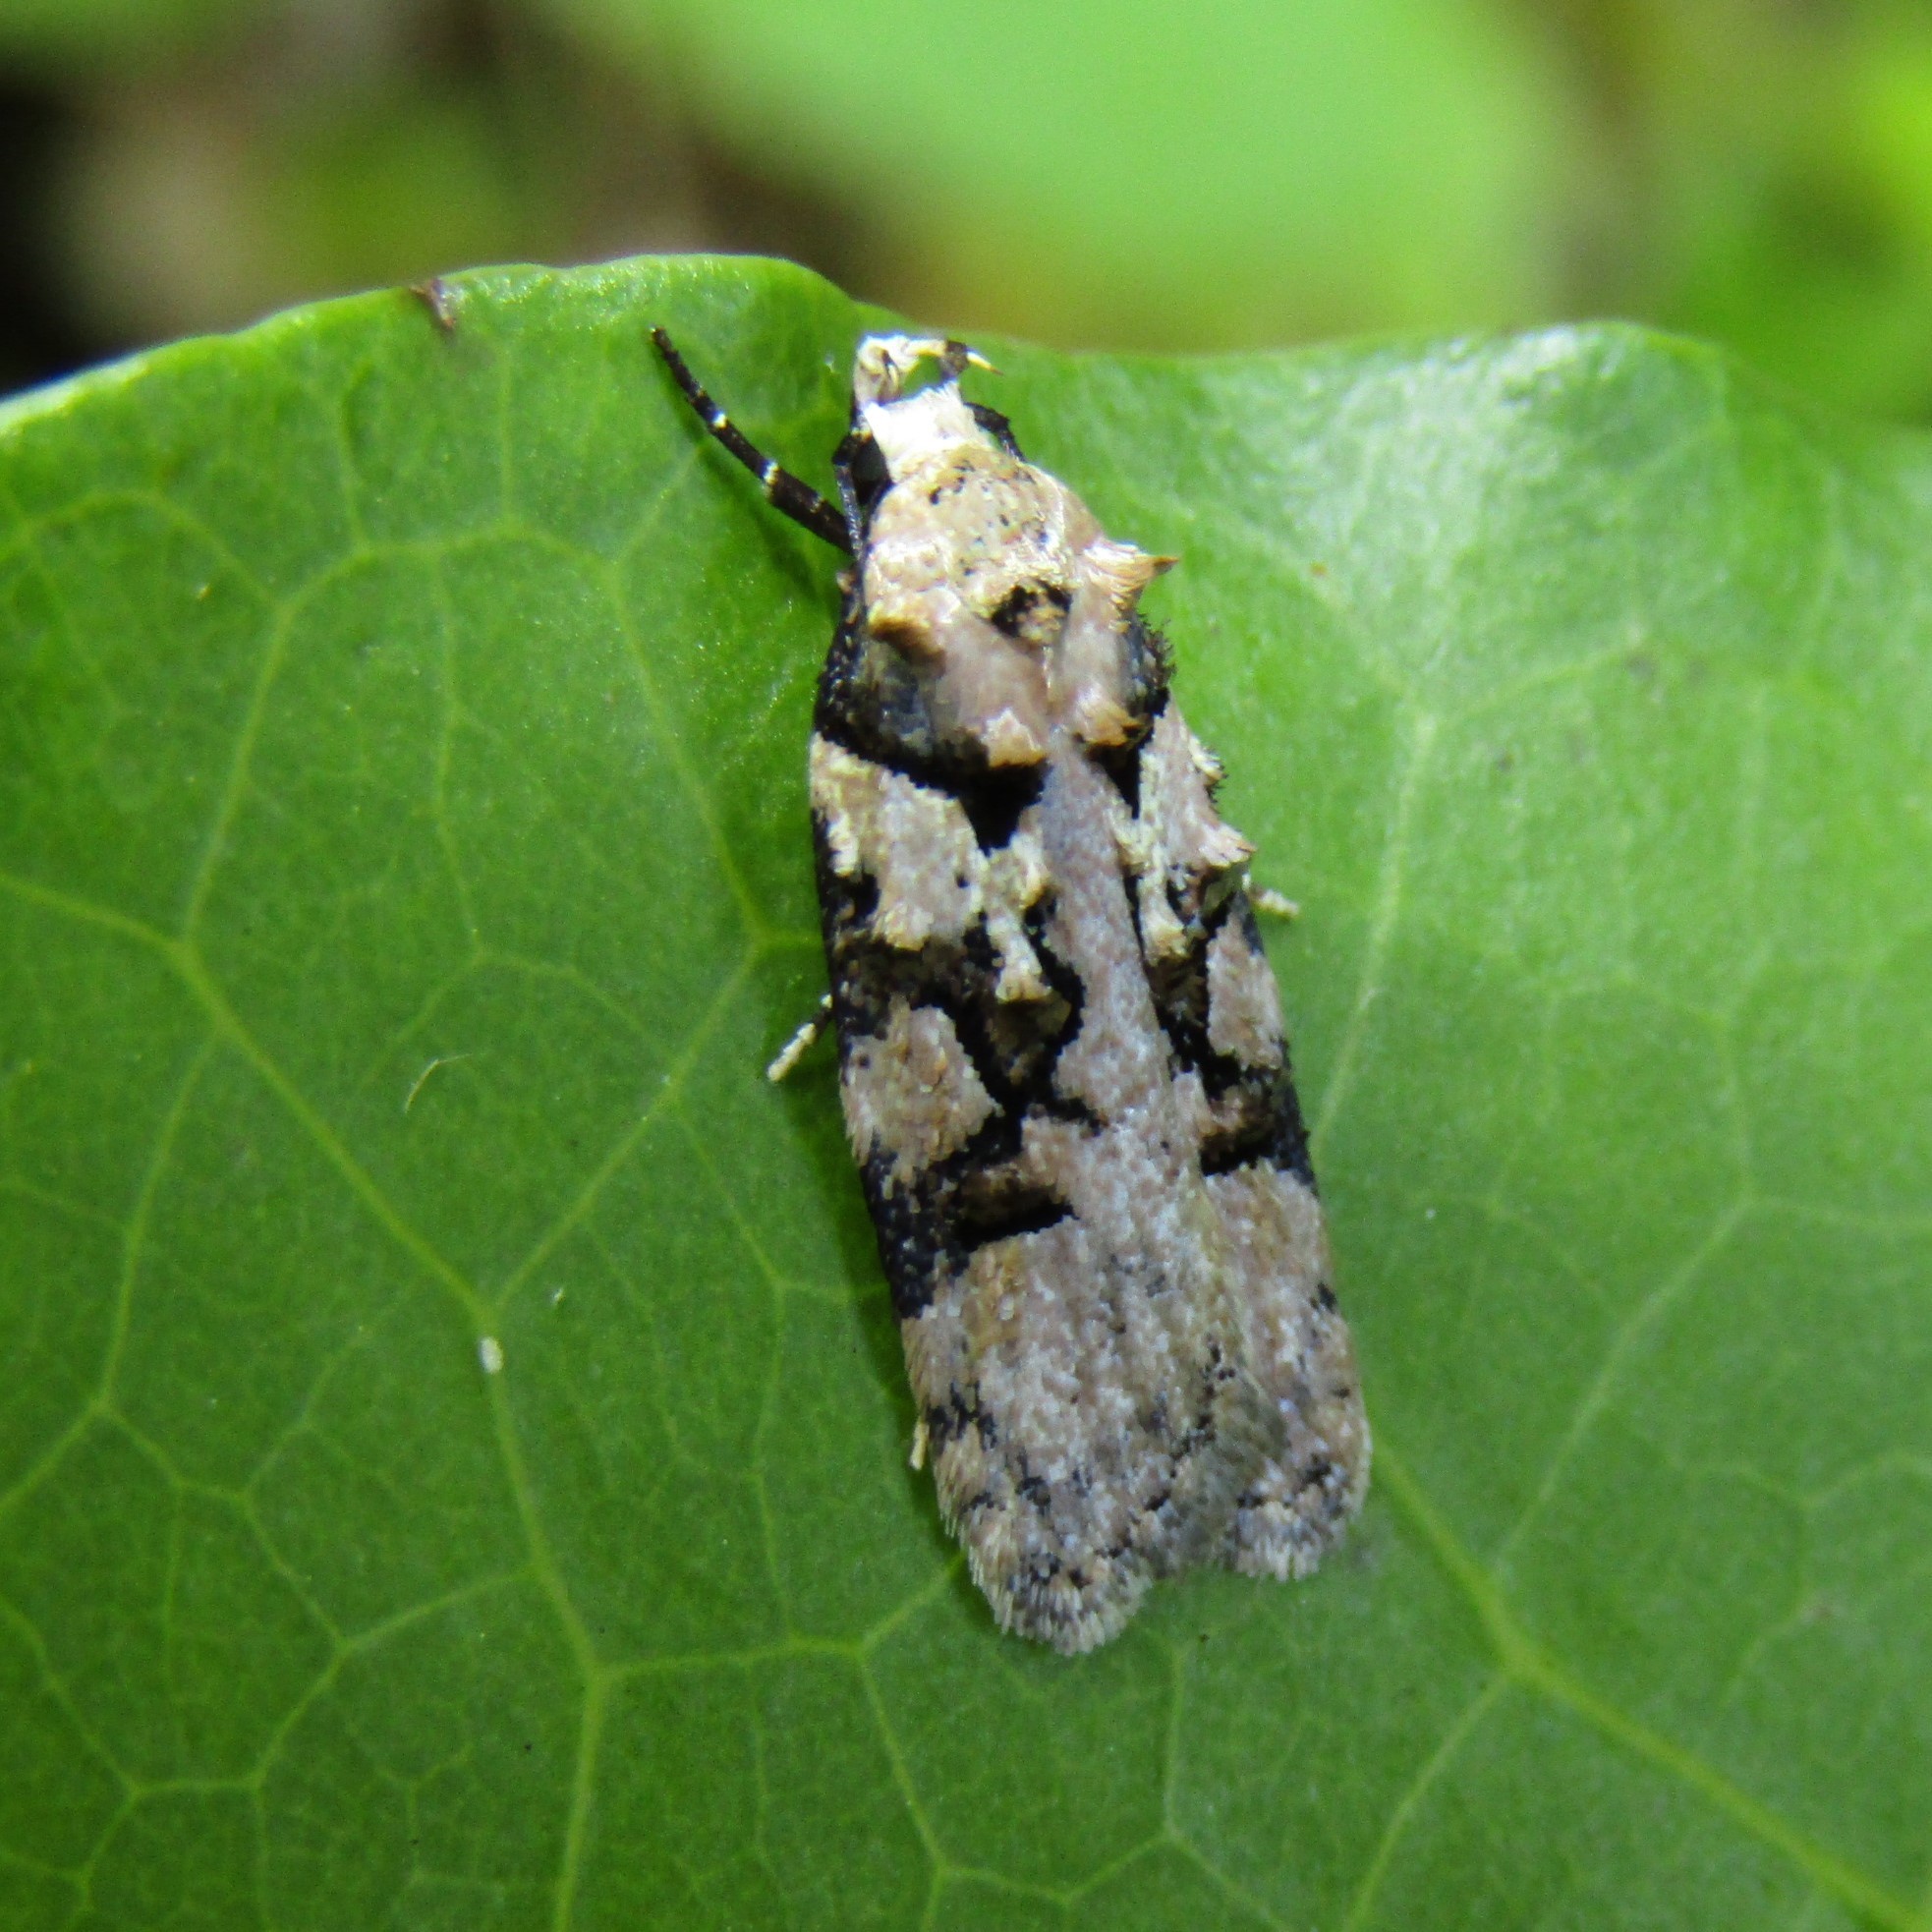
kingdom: Animalia
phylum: Arthropoda
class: Insecta
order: Lepidoptera
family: Oecophoridae
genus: Izatha
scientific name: Izatha epiphanes
